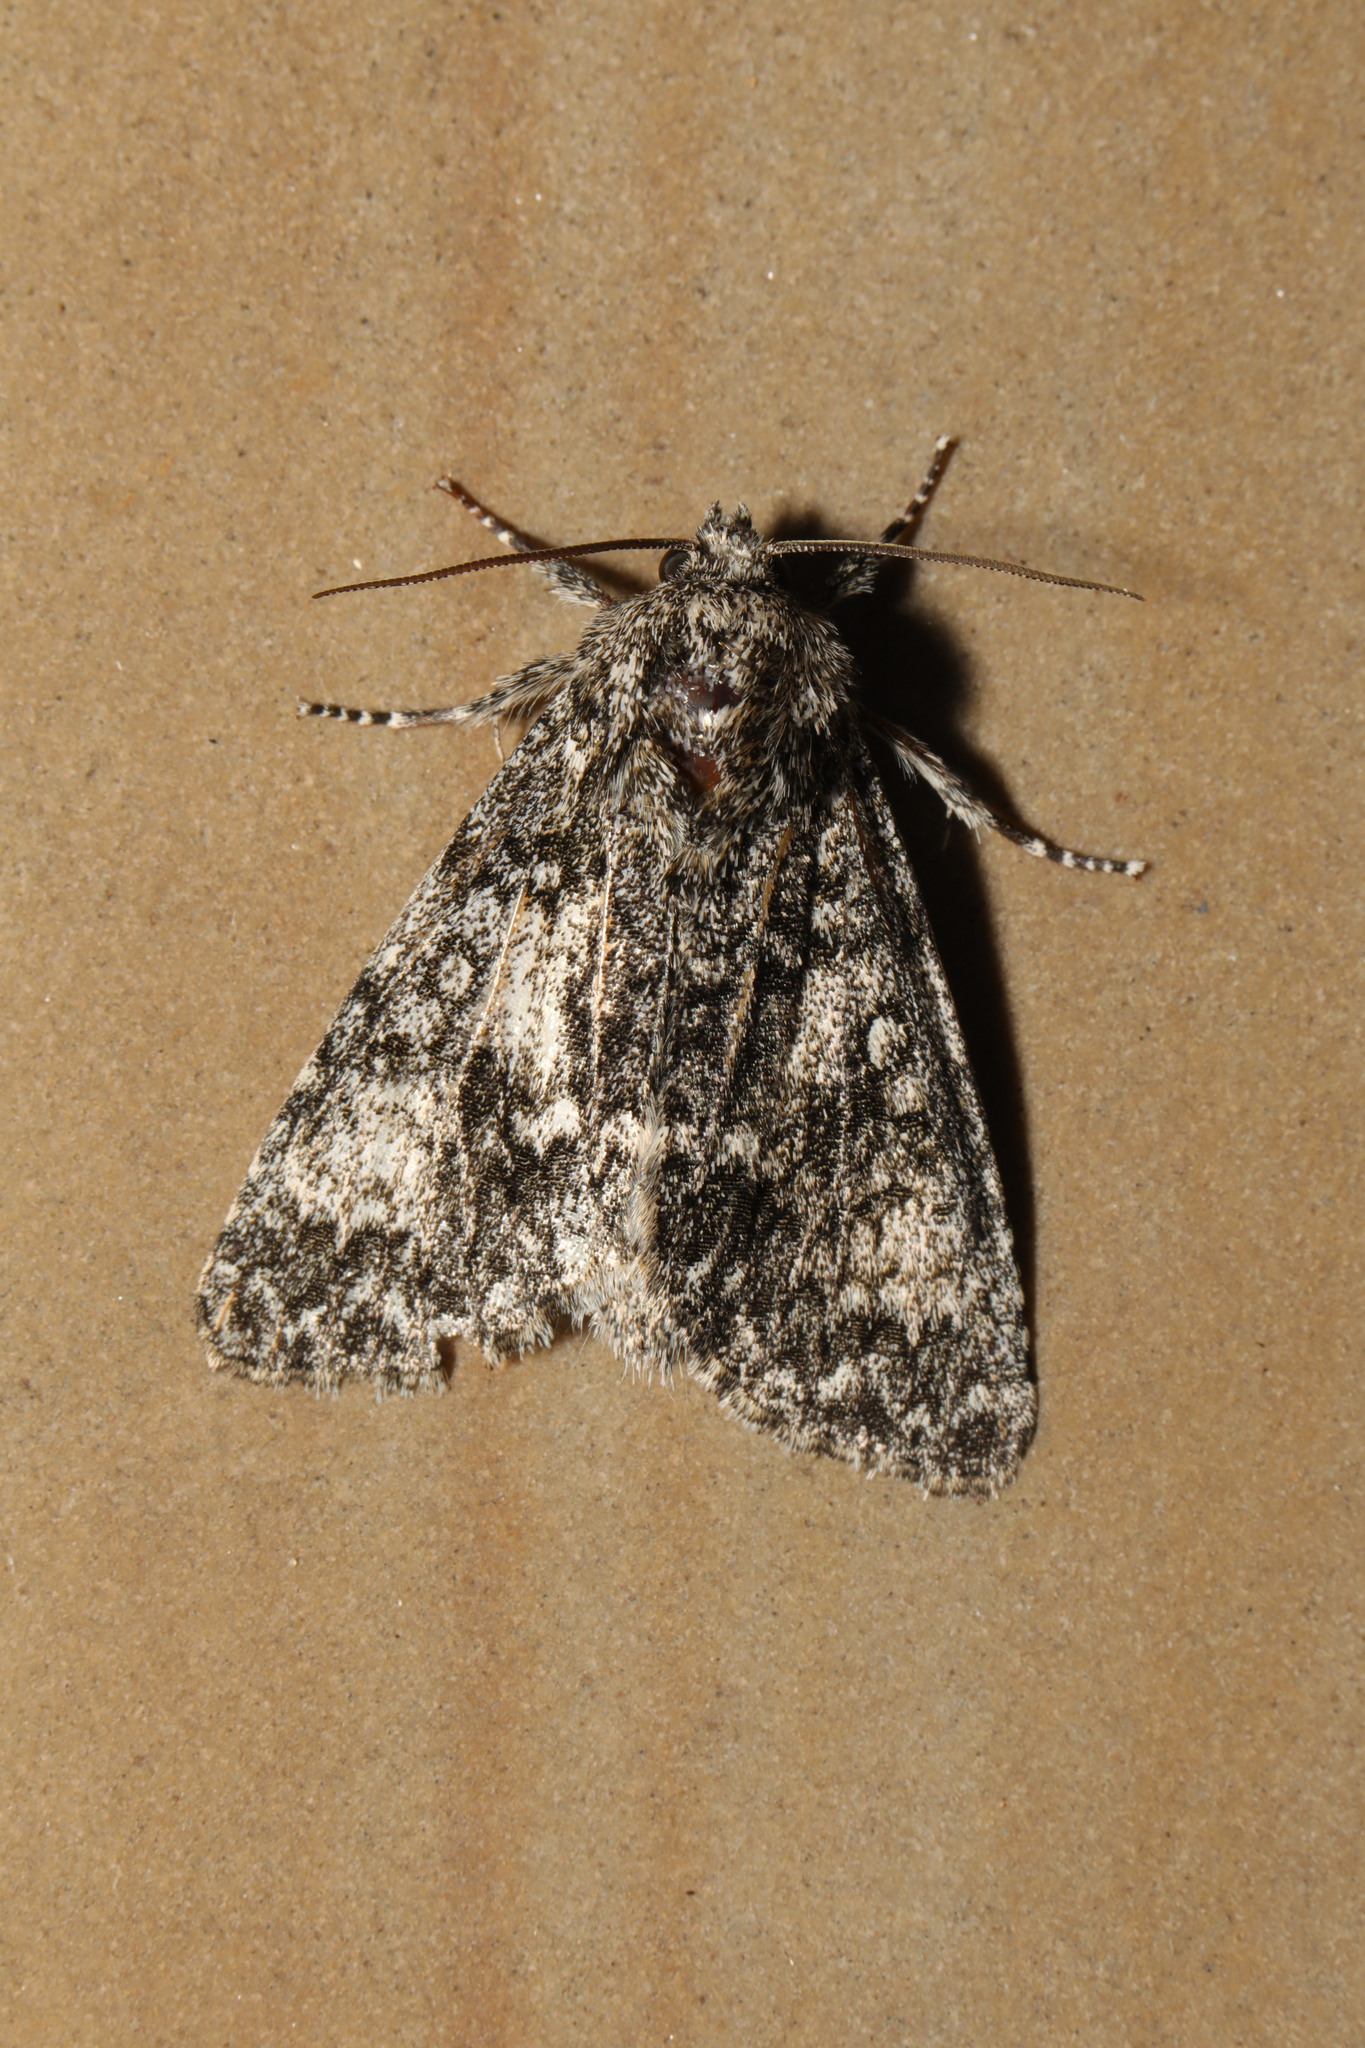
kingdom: Animalia
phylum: Arthropoda
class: Insecta
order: Lepidoptera
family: Noctuidae
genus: Acronicta
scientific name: Acronicta megacephala
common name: Poplar grey
